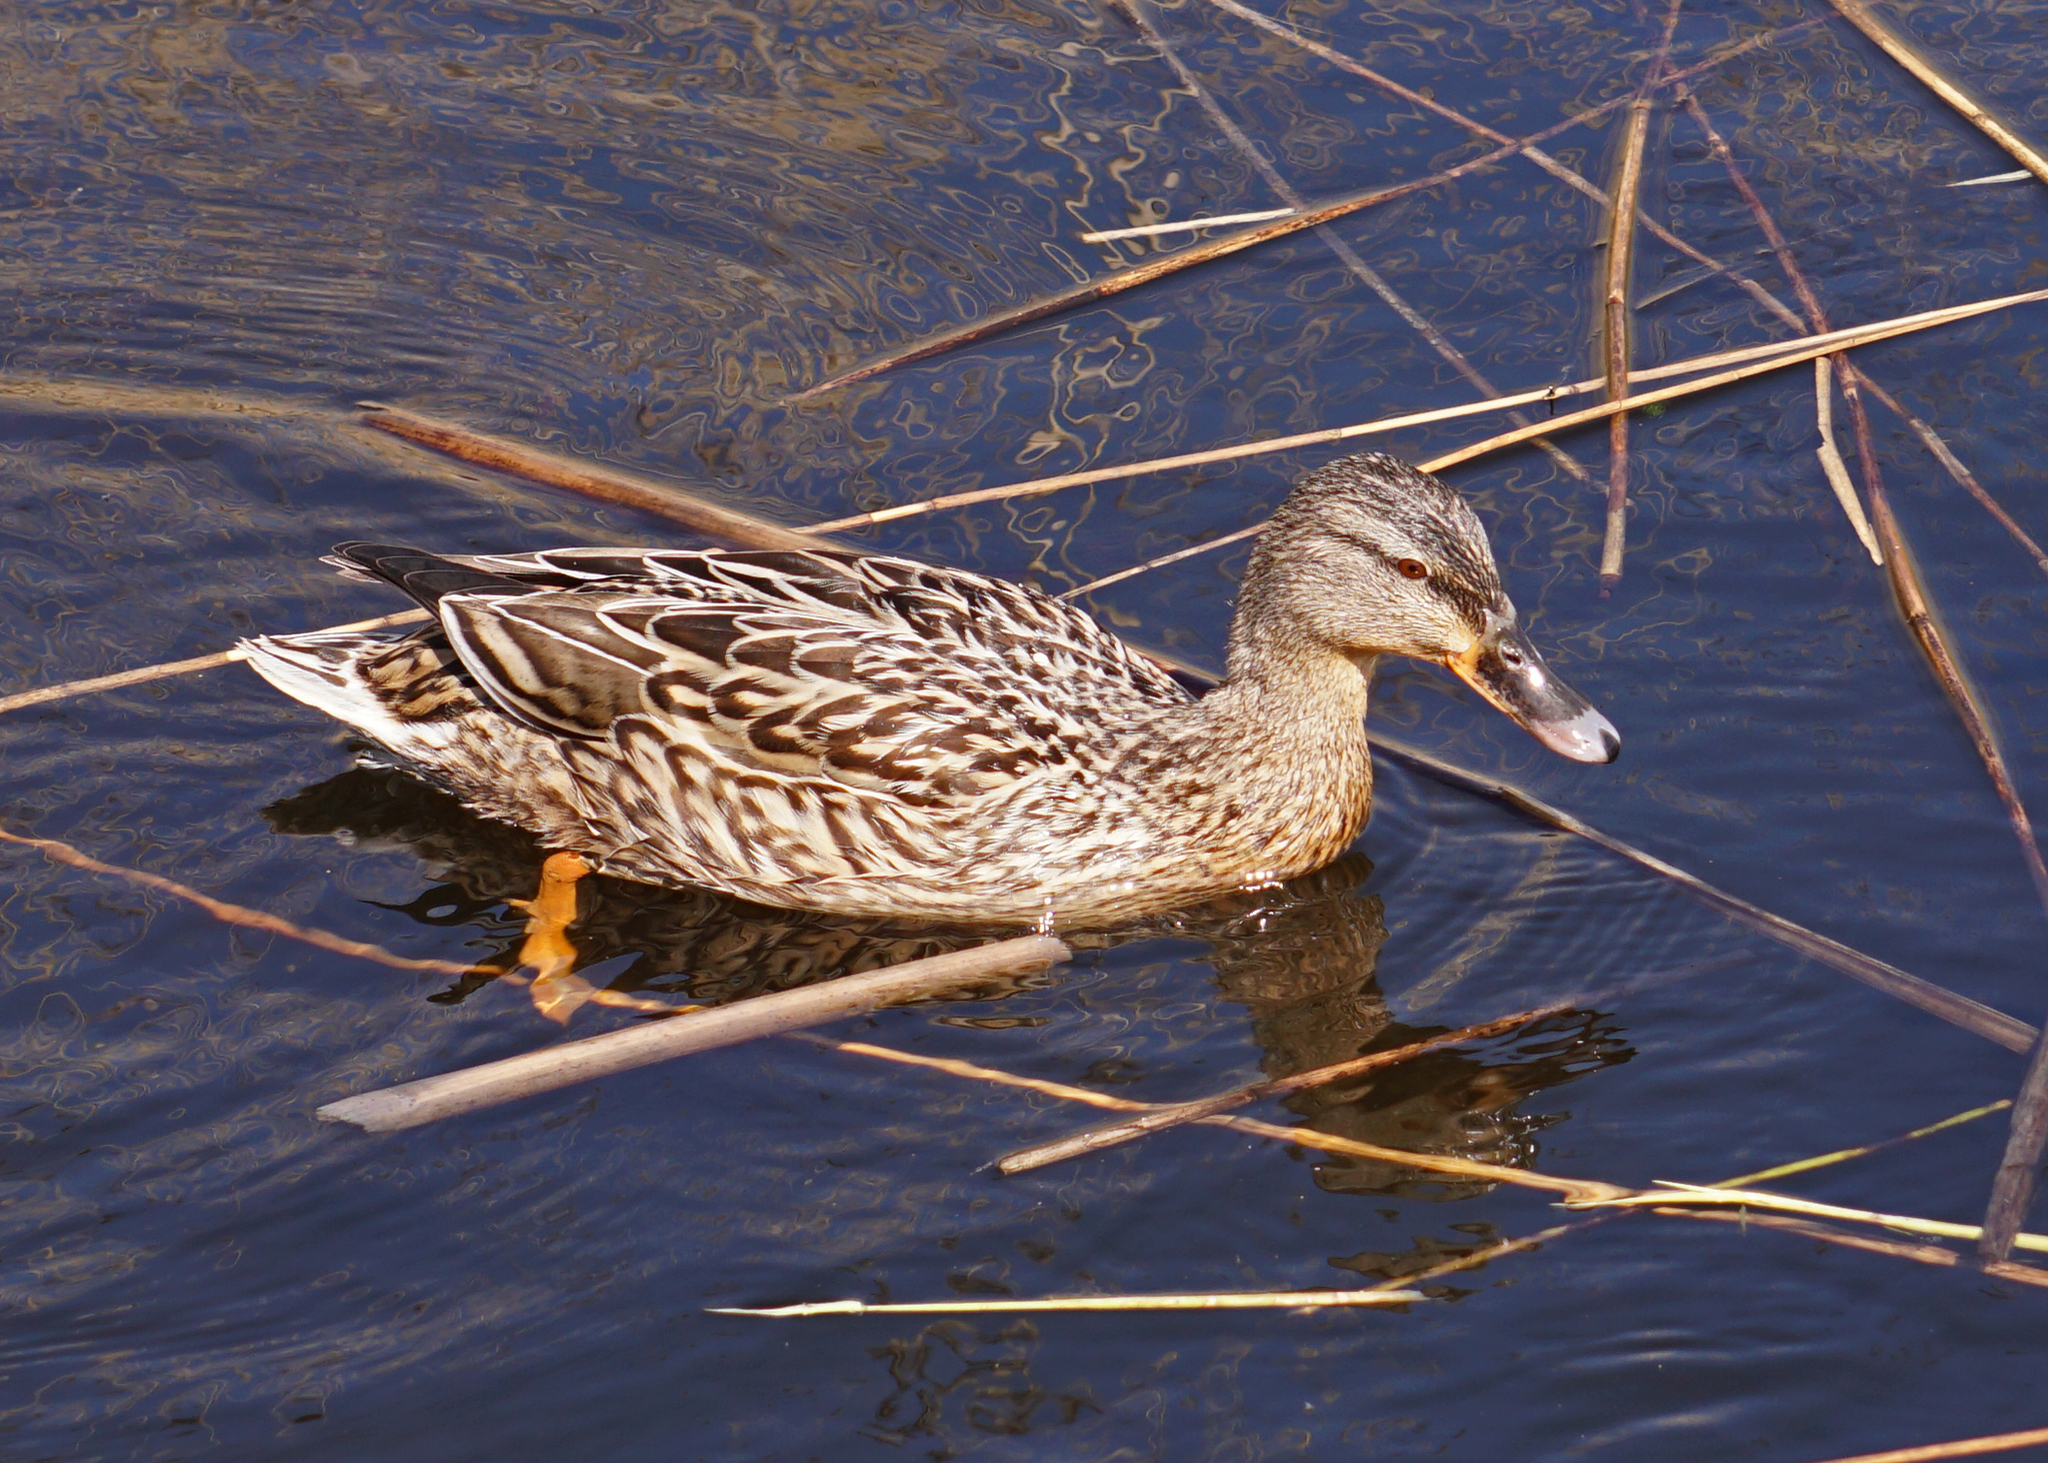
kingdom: Animalia
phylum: Chordata
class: Aves
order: Anseriformes
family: Anatidae
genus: Anas
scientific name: Anas platyrhynchos
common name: Mallard
